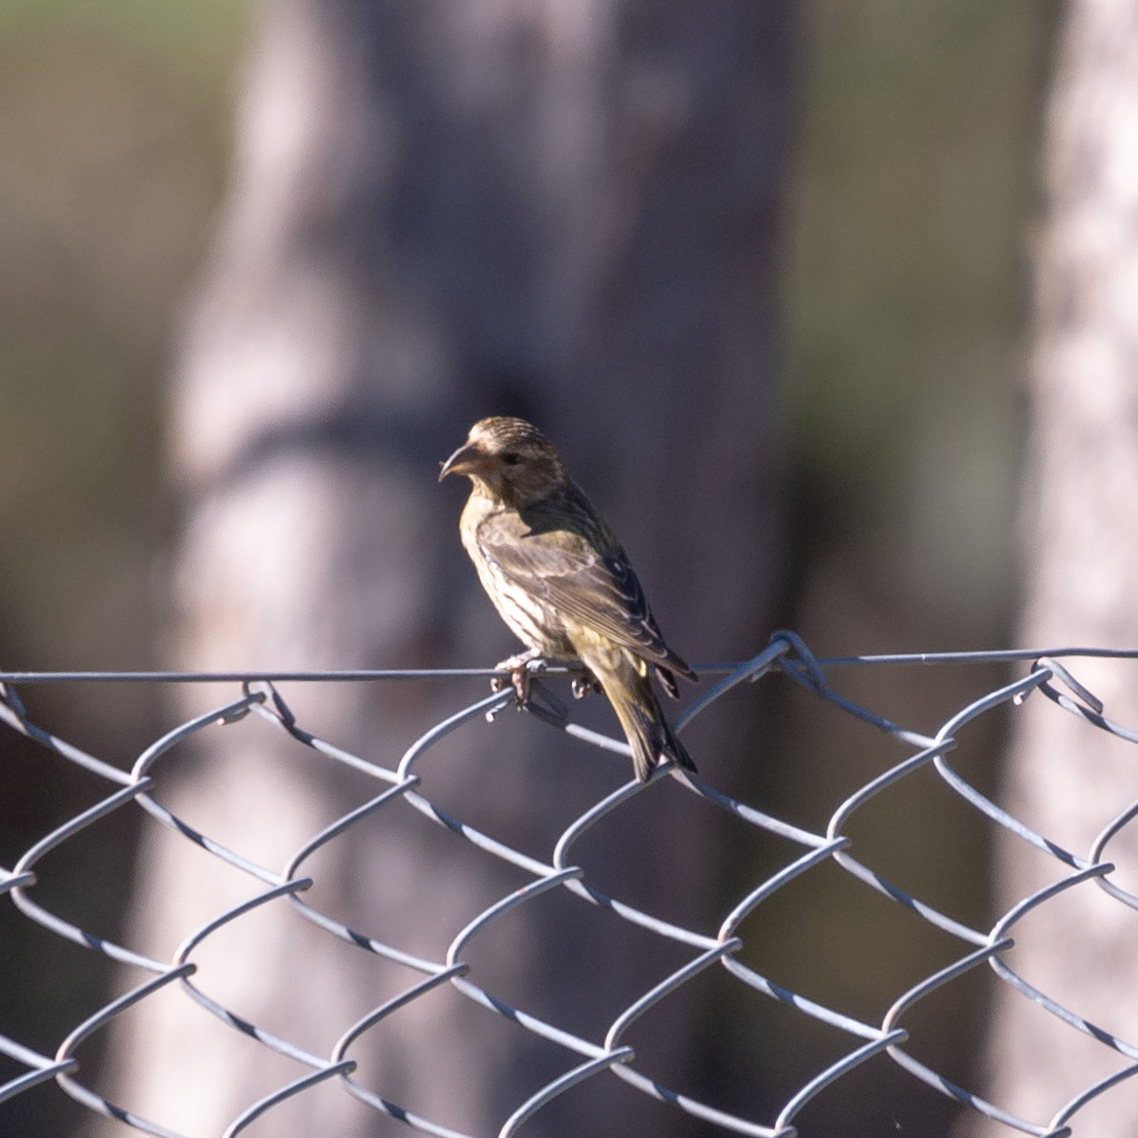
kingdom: Animalia
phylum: Chordata
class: Aves
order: Passeriformes
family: Fringillidae
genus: Loxia
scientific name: Loxia curvirostra
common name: Red crossbill
